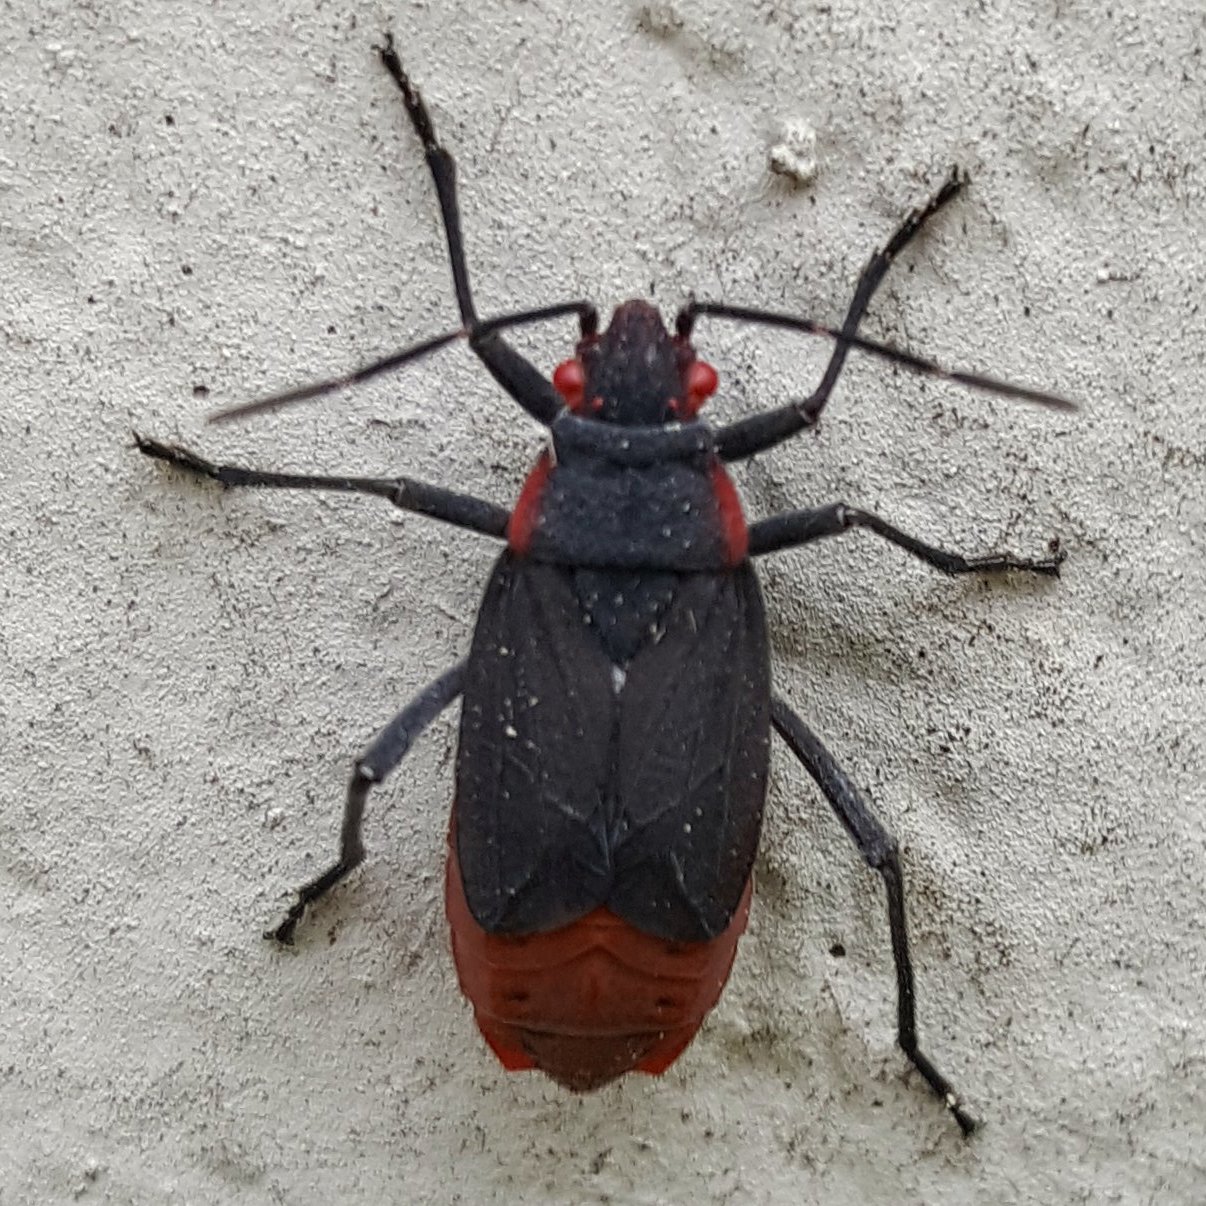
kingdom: Animalia
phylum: Arthropoda
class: Insecta
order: Hemiptera
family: Rhopalidae
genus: Jadera
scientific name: Jadera haematoloma
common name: Red-shouldered bug
